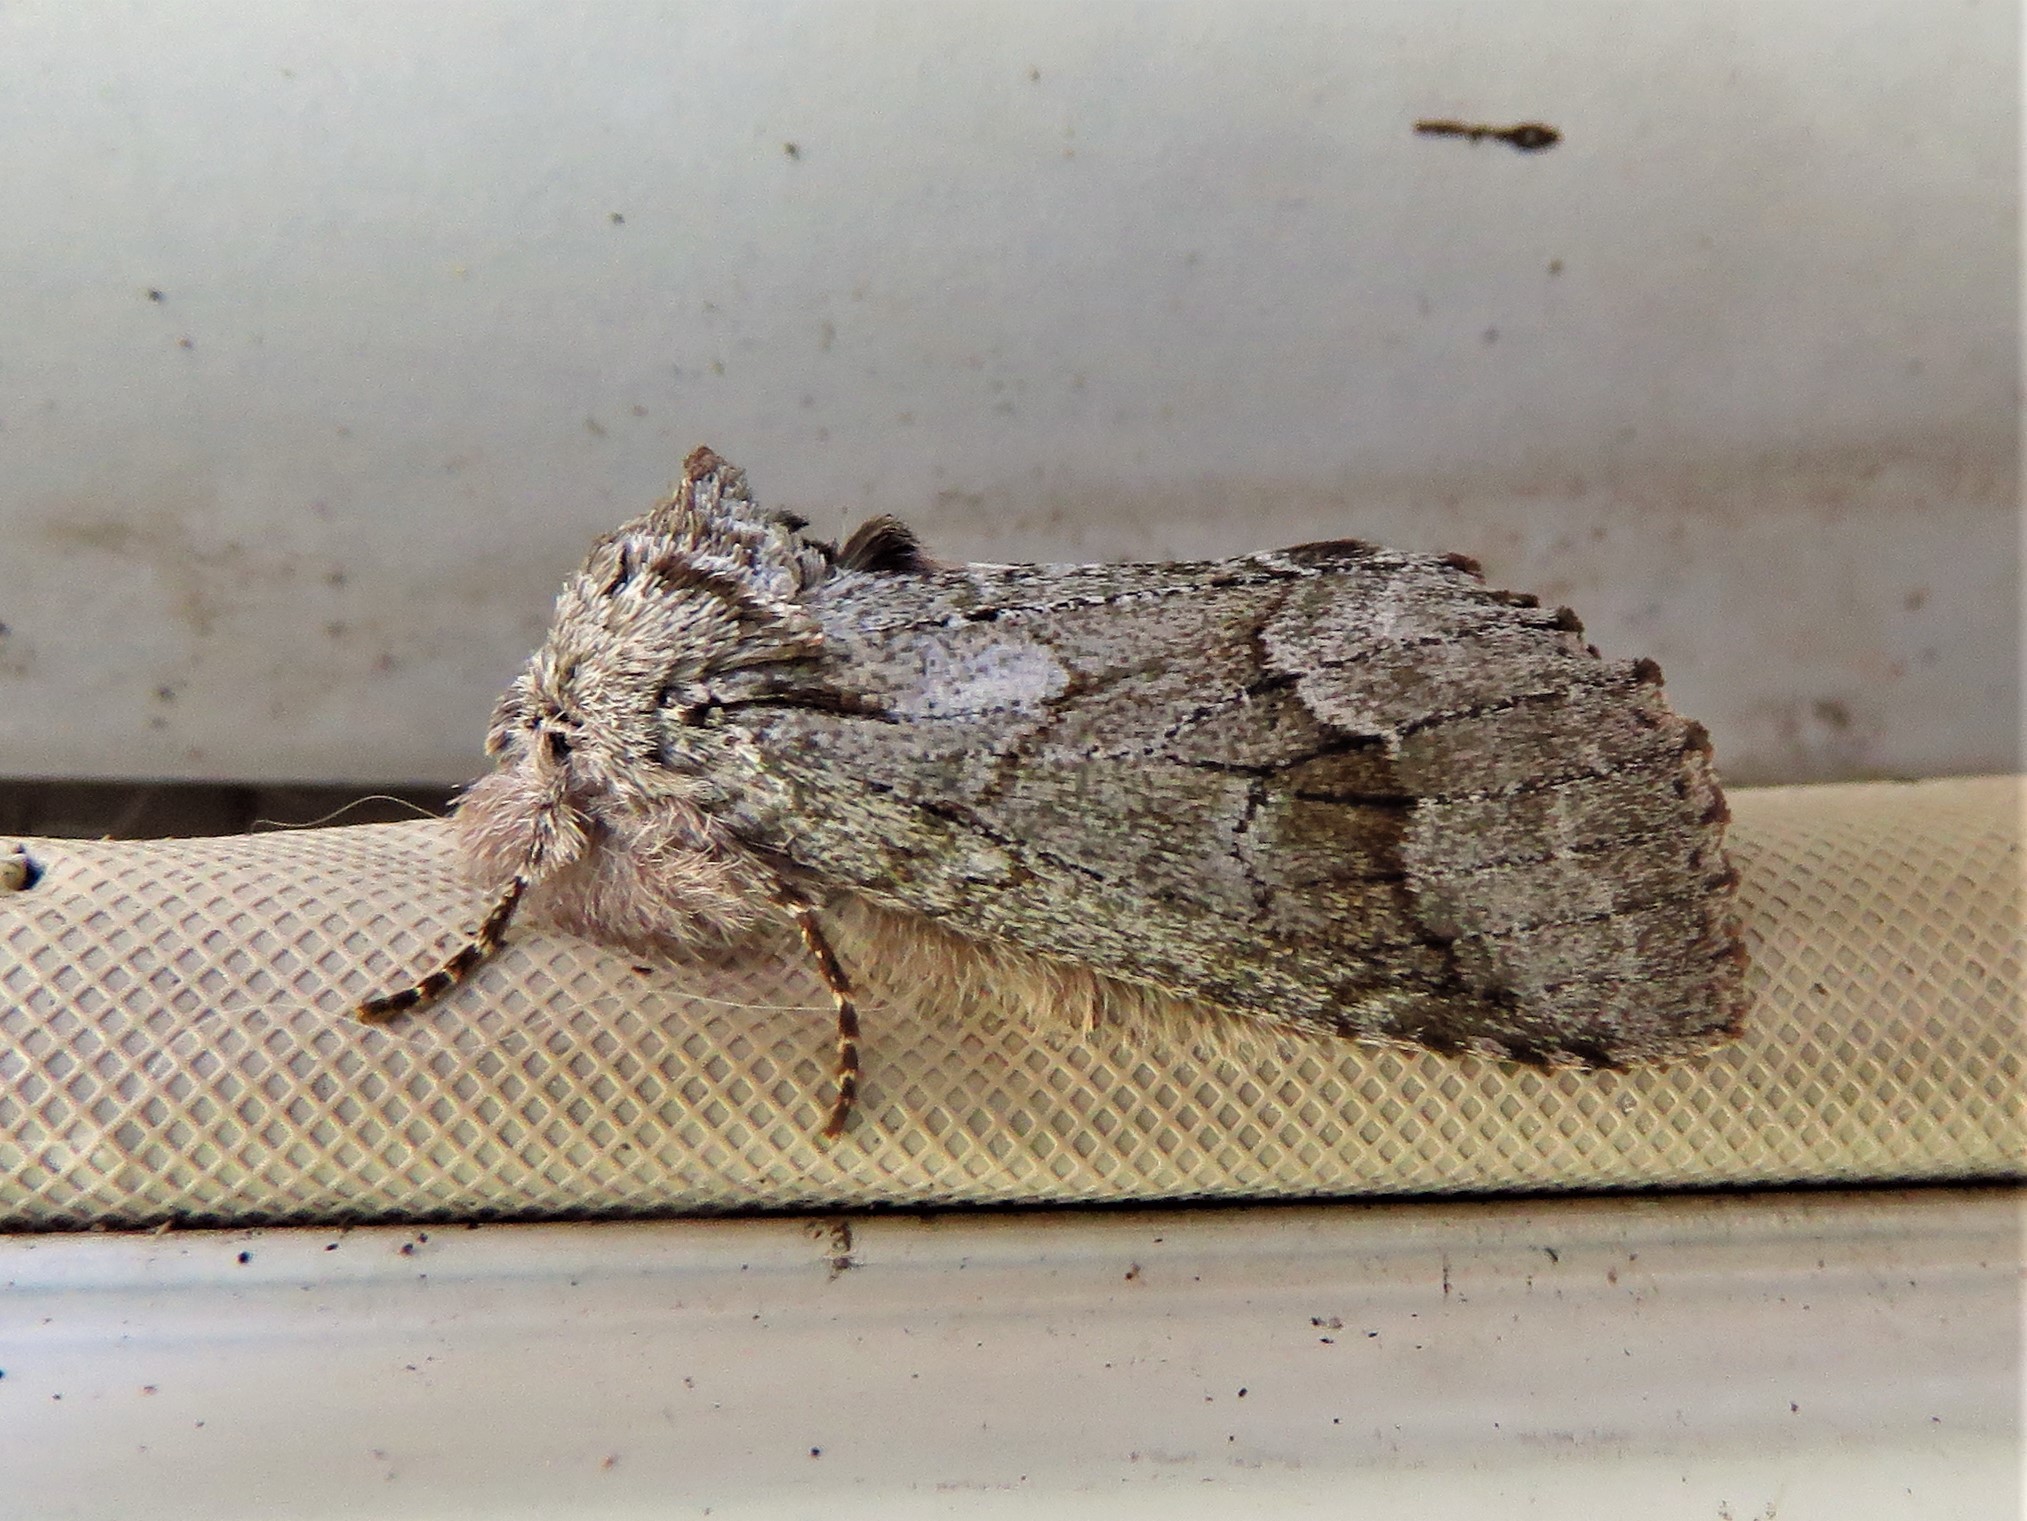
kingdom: Animalia
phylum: Arthropoda
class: Insecta
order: Lepidoptera
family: Notodontidae
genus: Lochmaeus
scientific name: Lochmaeus bilineata
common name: Double-lined prominent
